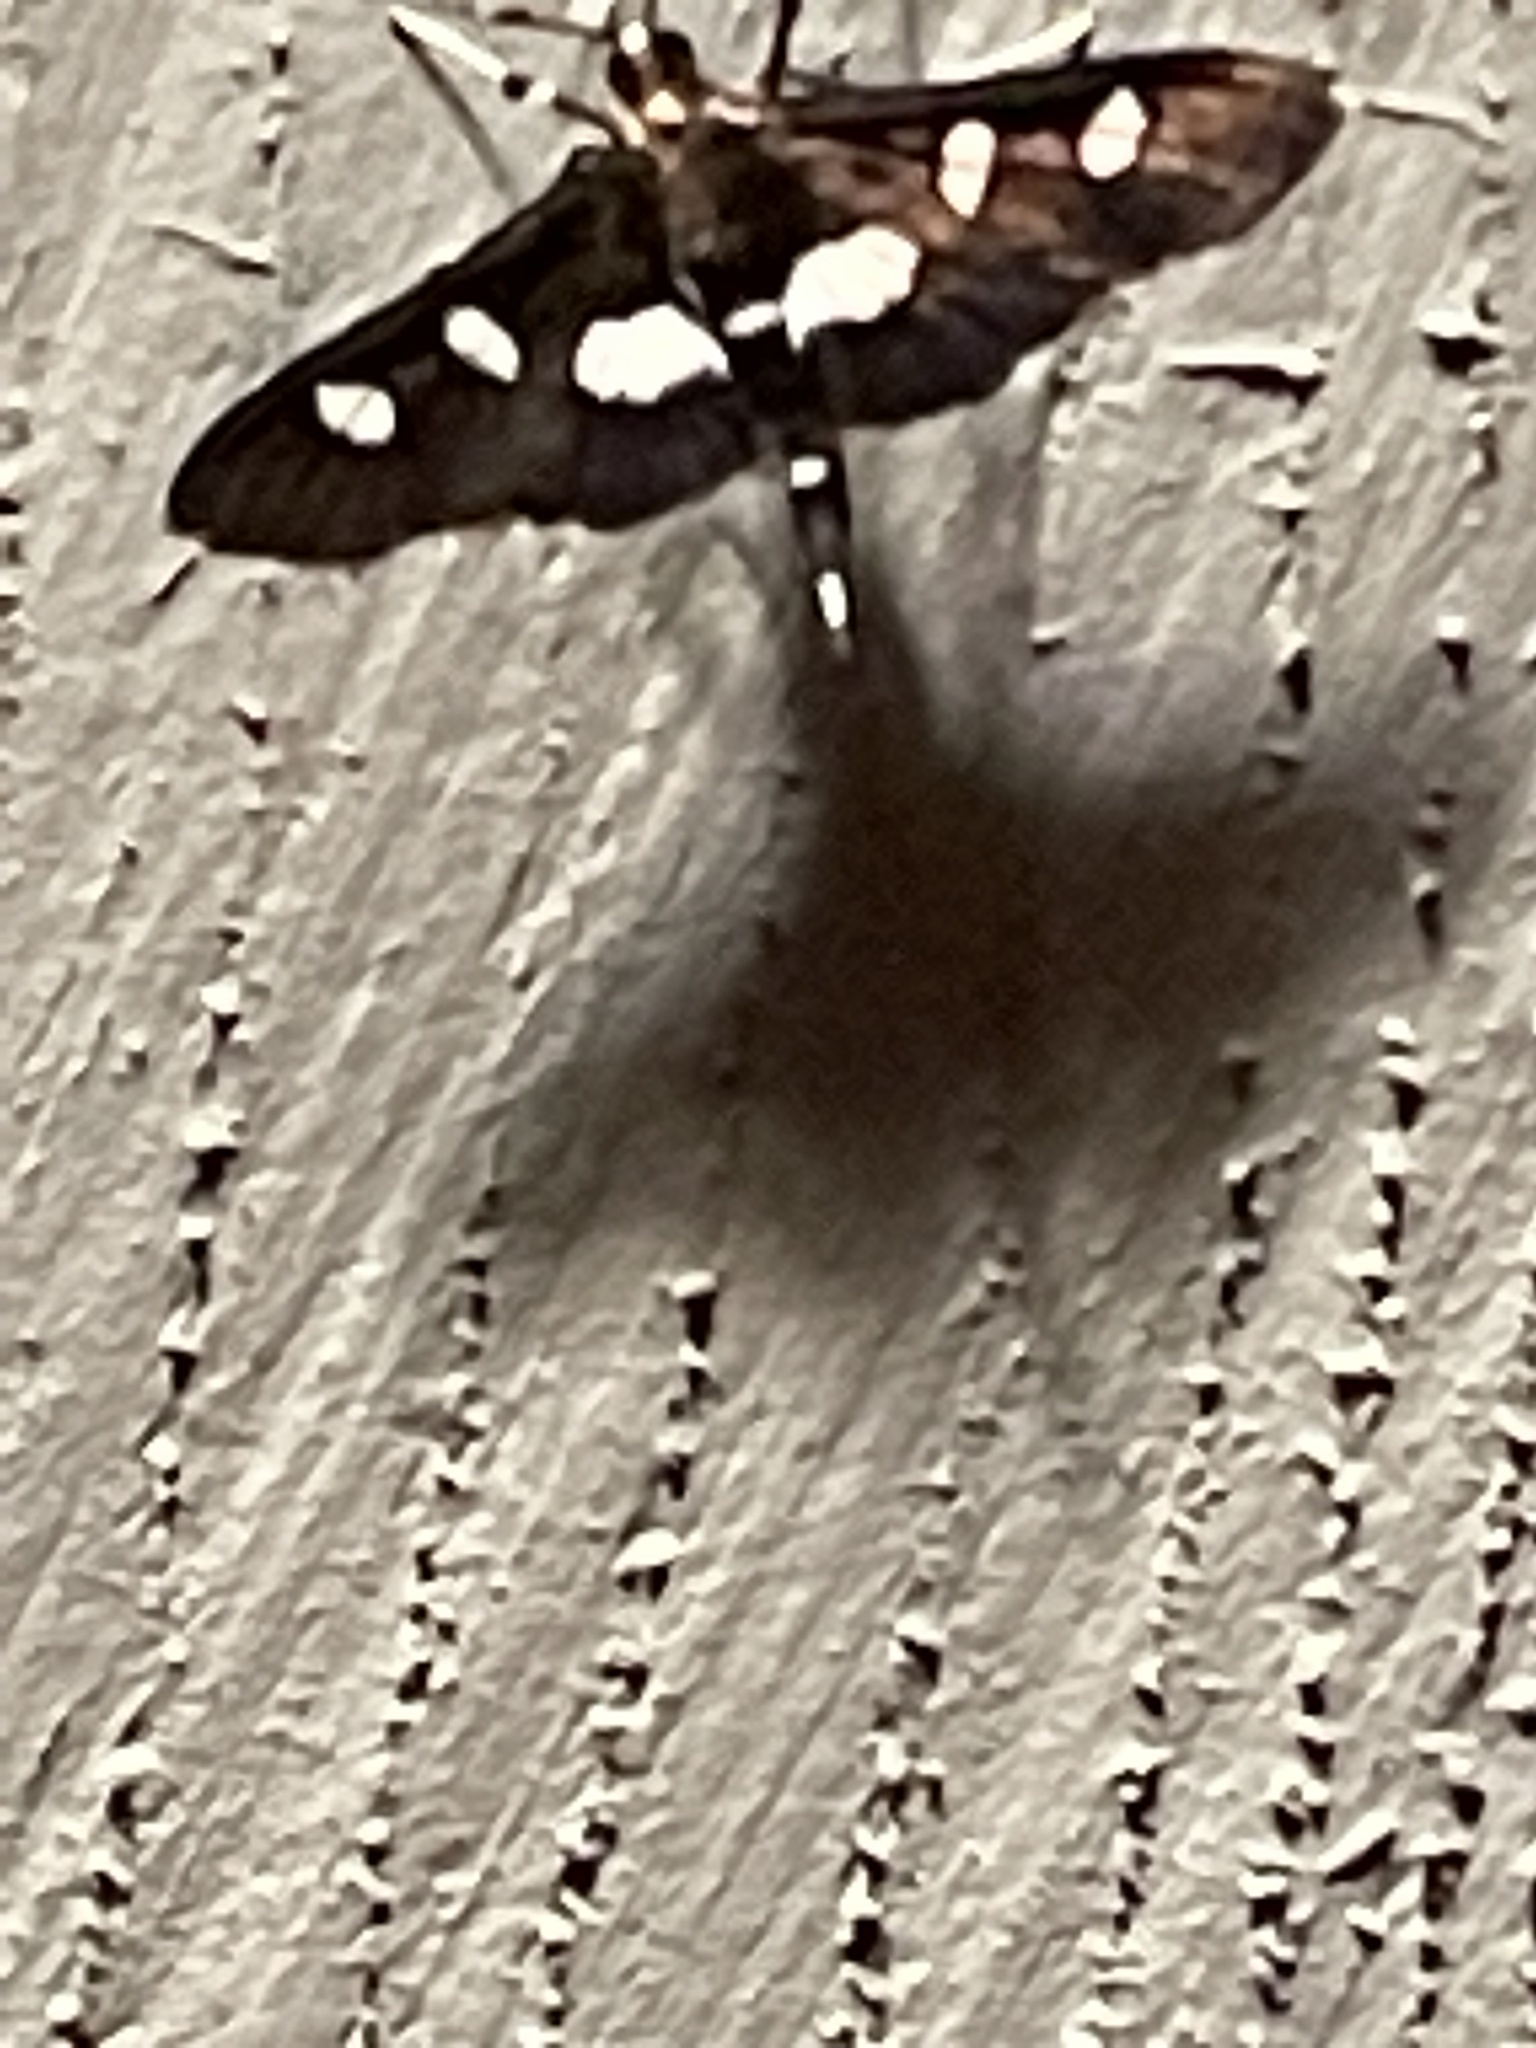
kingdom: Animalia
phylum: Arthropoda
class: Insecta
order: Lepidoptera
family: Crambidae
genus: Desmia
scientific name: Desmia
